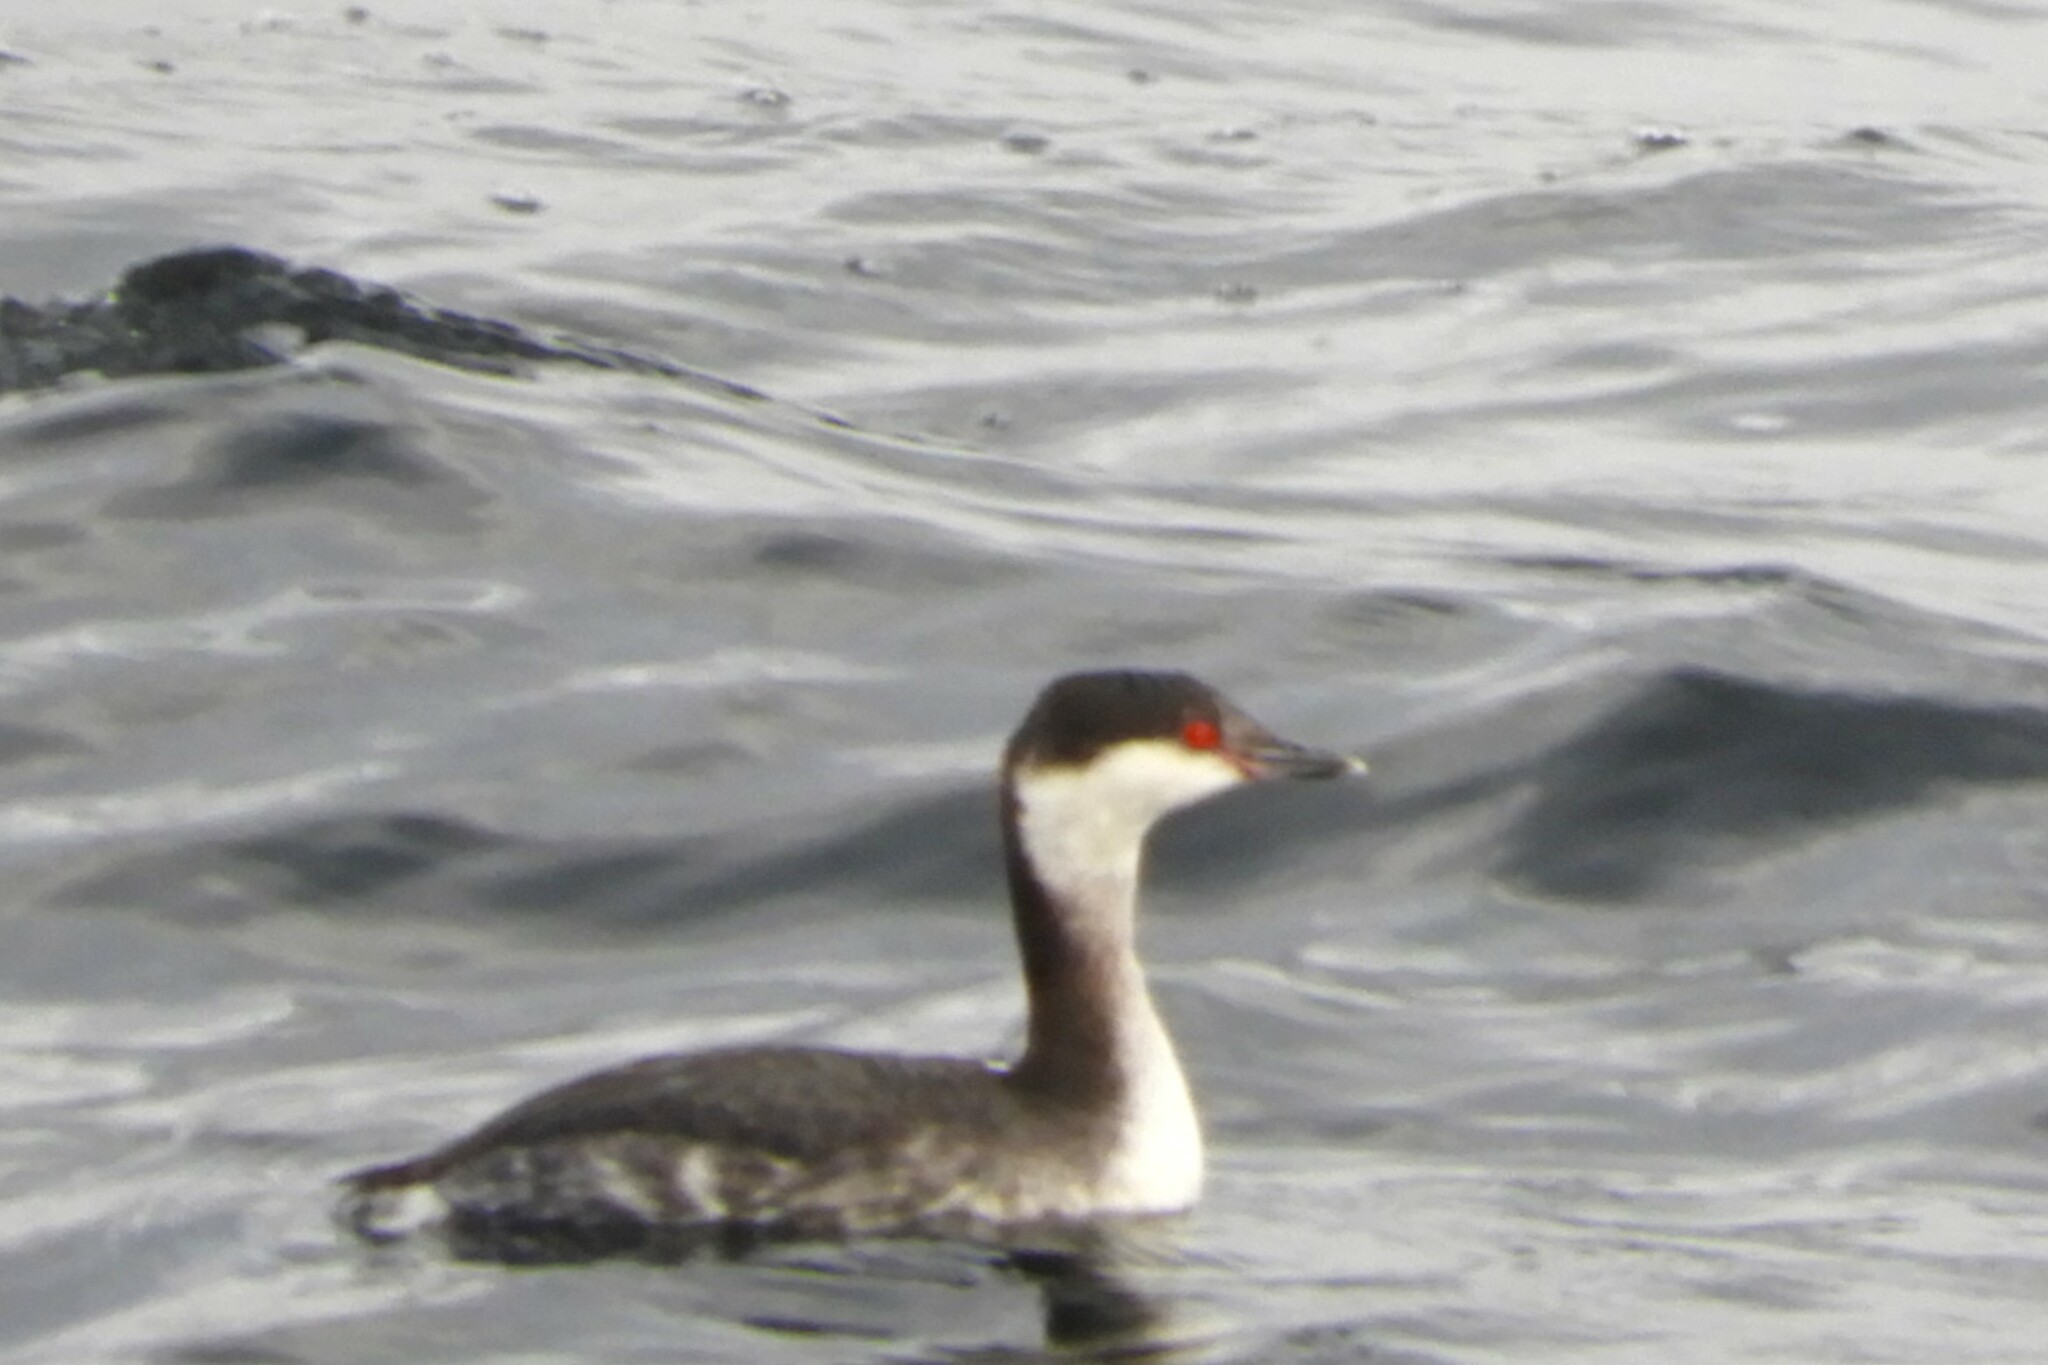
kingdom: Animalia
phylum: Chordata
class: Aves
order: Podicipediformes
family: Podicipedidae
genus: Podiceps
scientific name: Podiceps auritus
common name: Horned grebe
